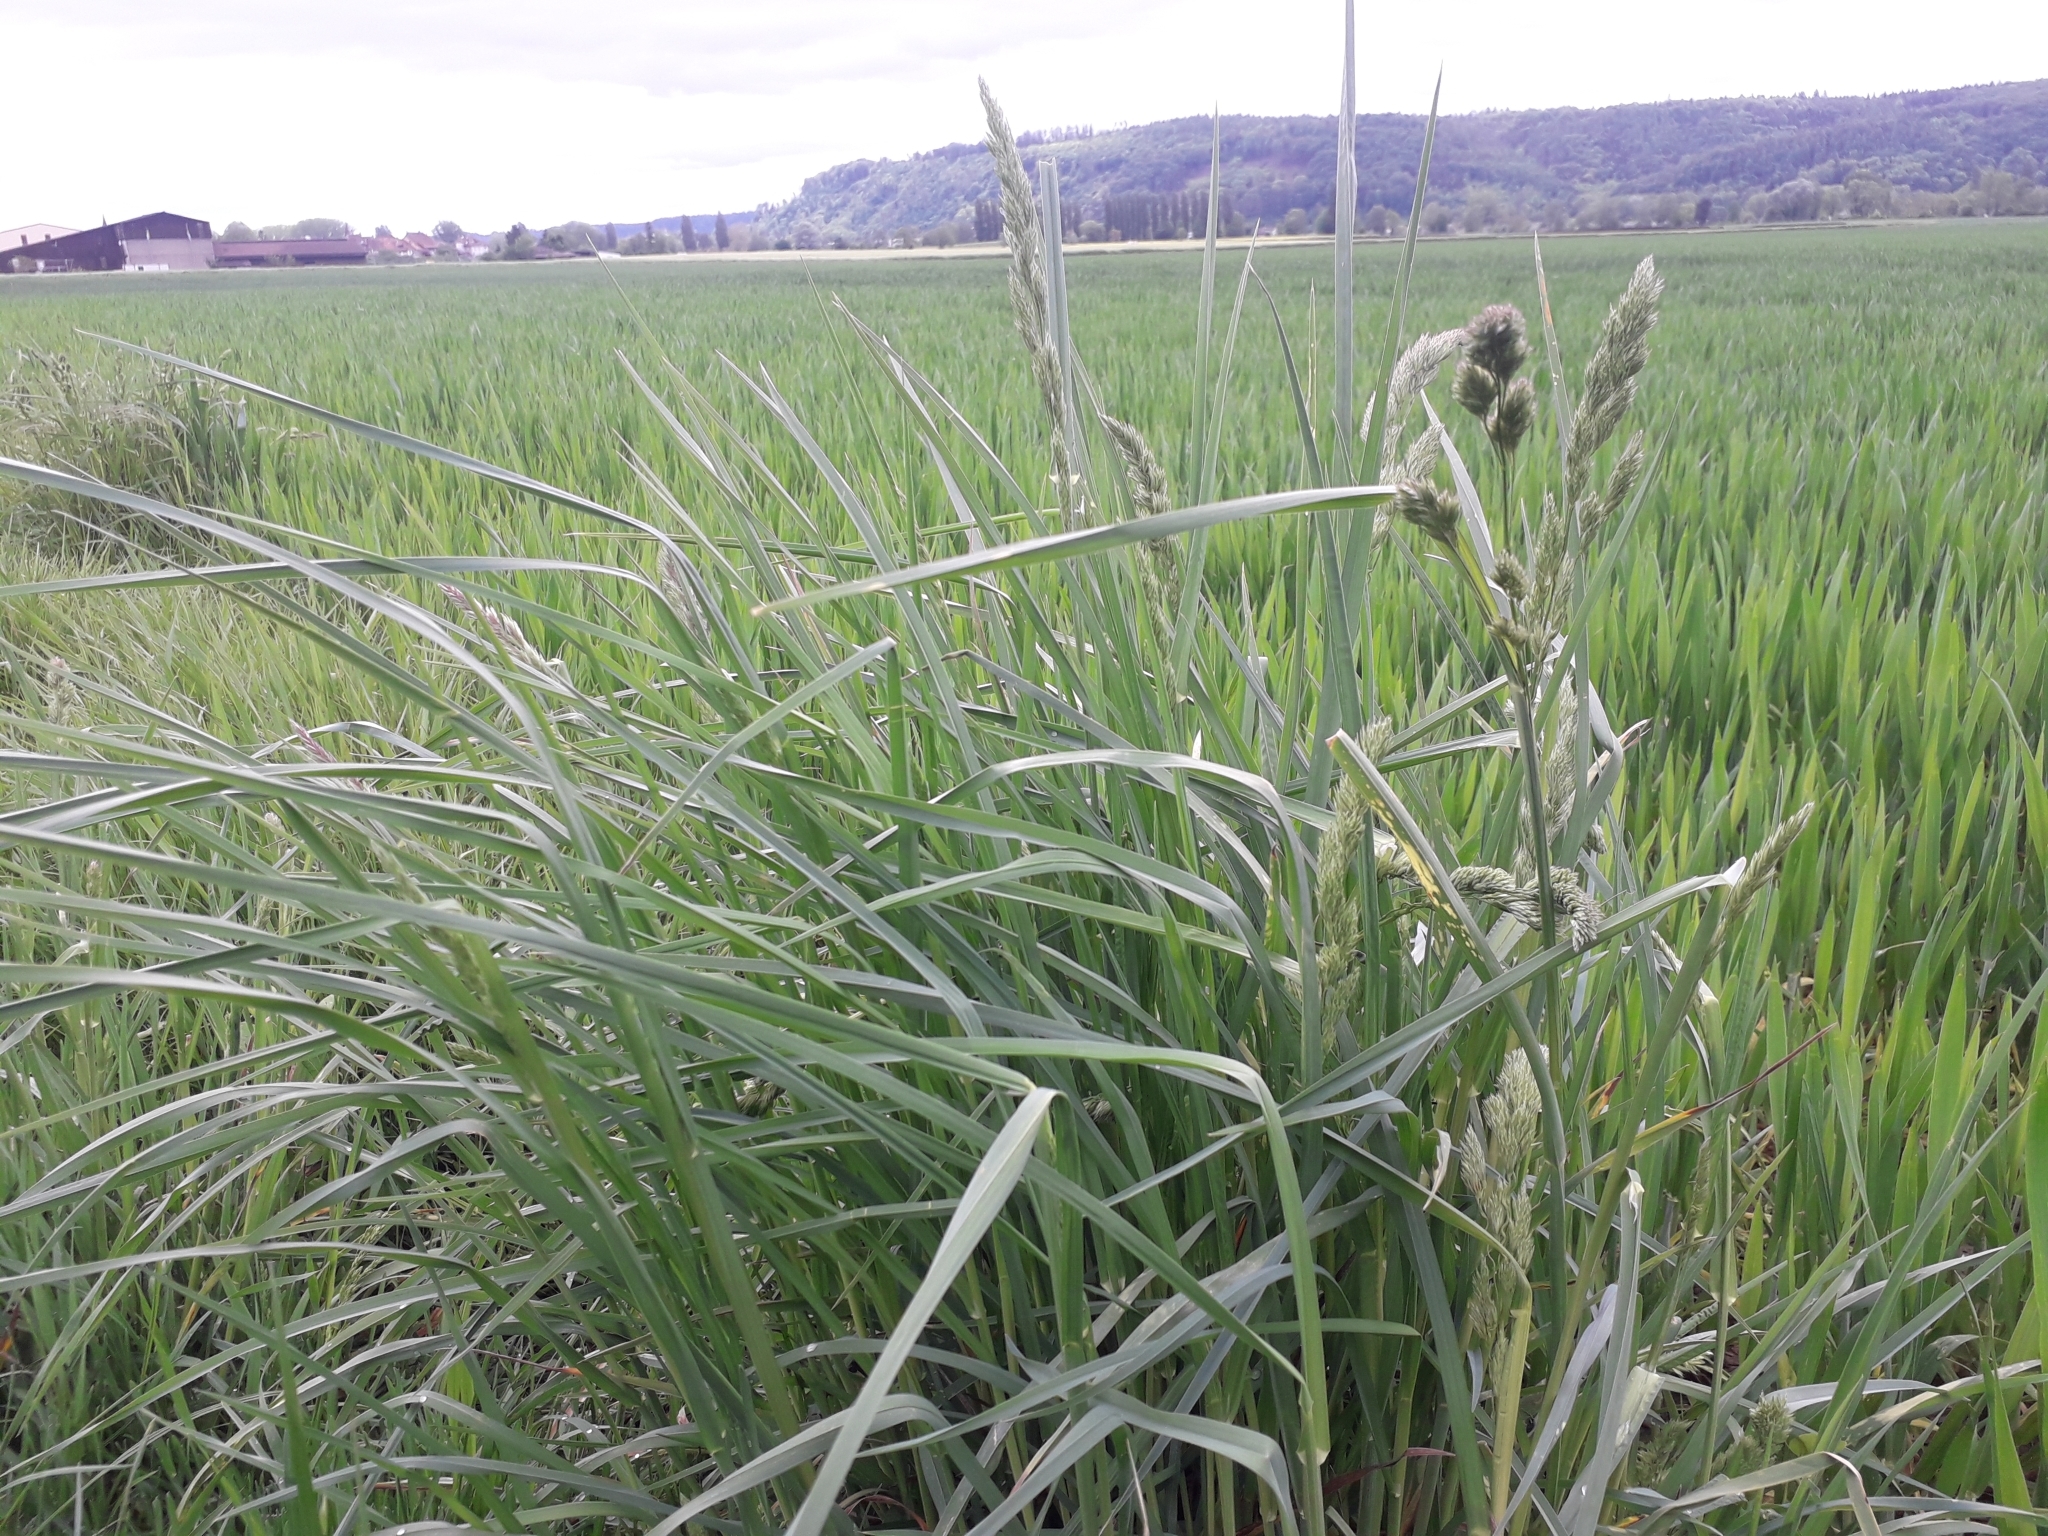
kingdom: Plantae
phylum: Tracheophyta
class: Liliopsida
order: Poales
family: Poaceae
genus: Dactylis
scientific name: Dactylis glomerata
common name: Orchardgrass
